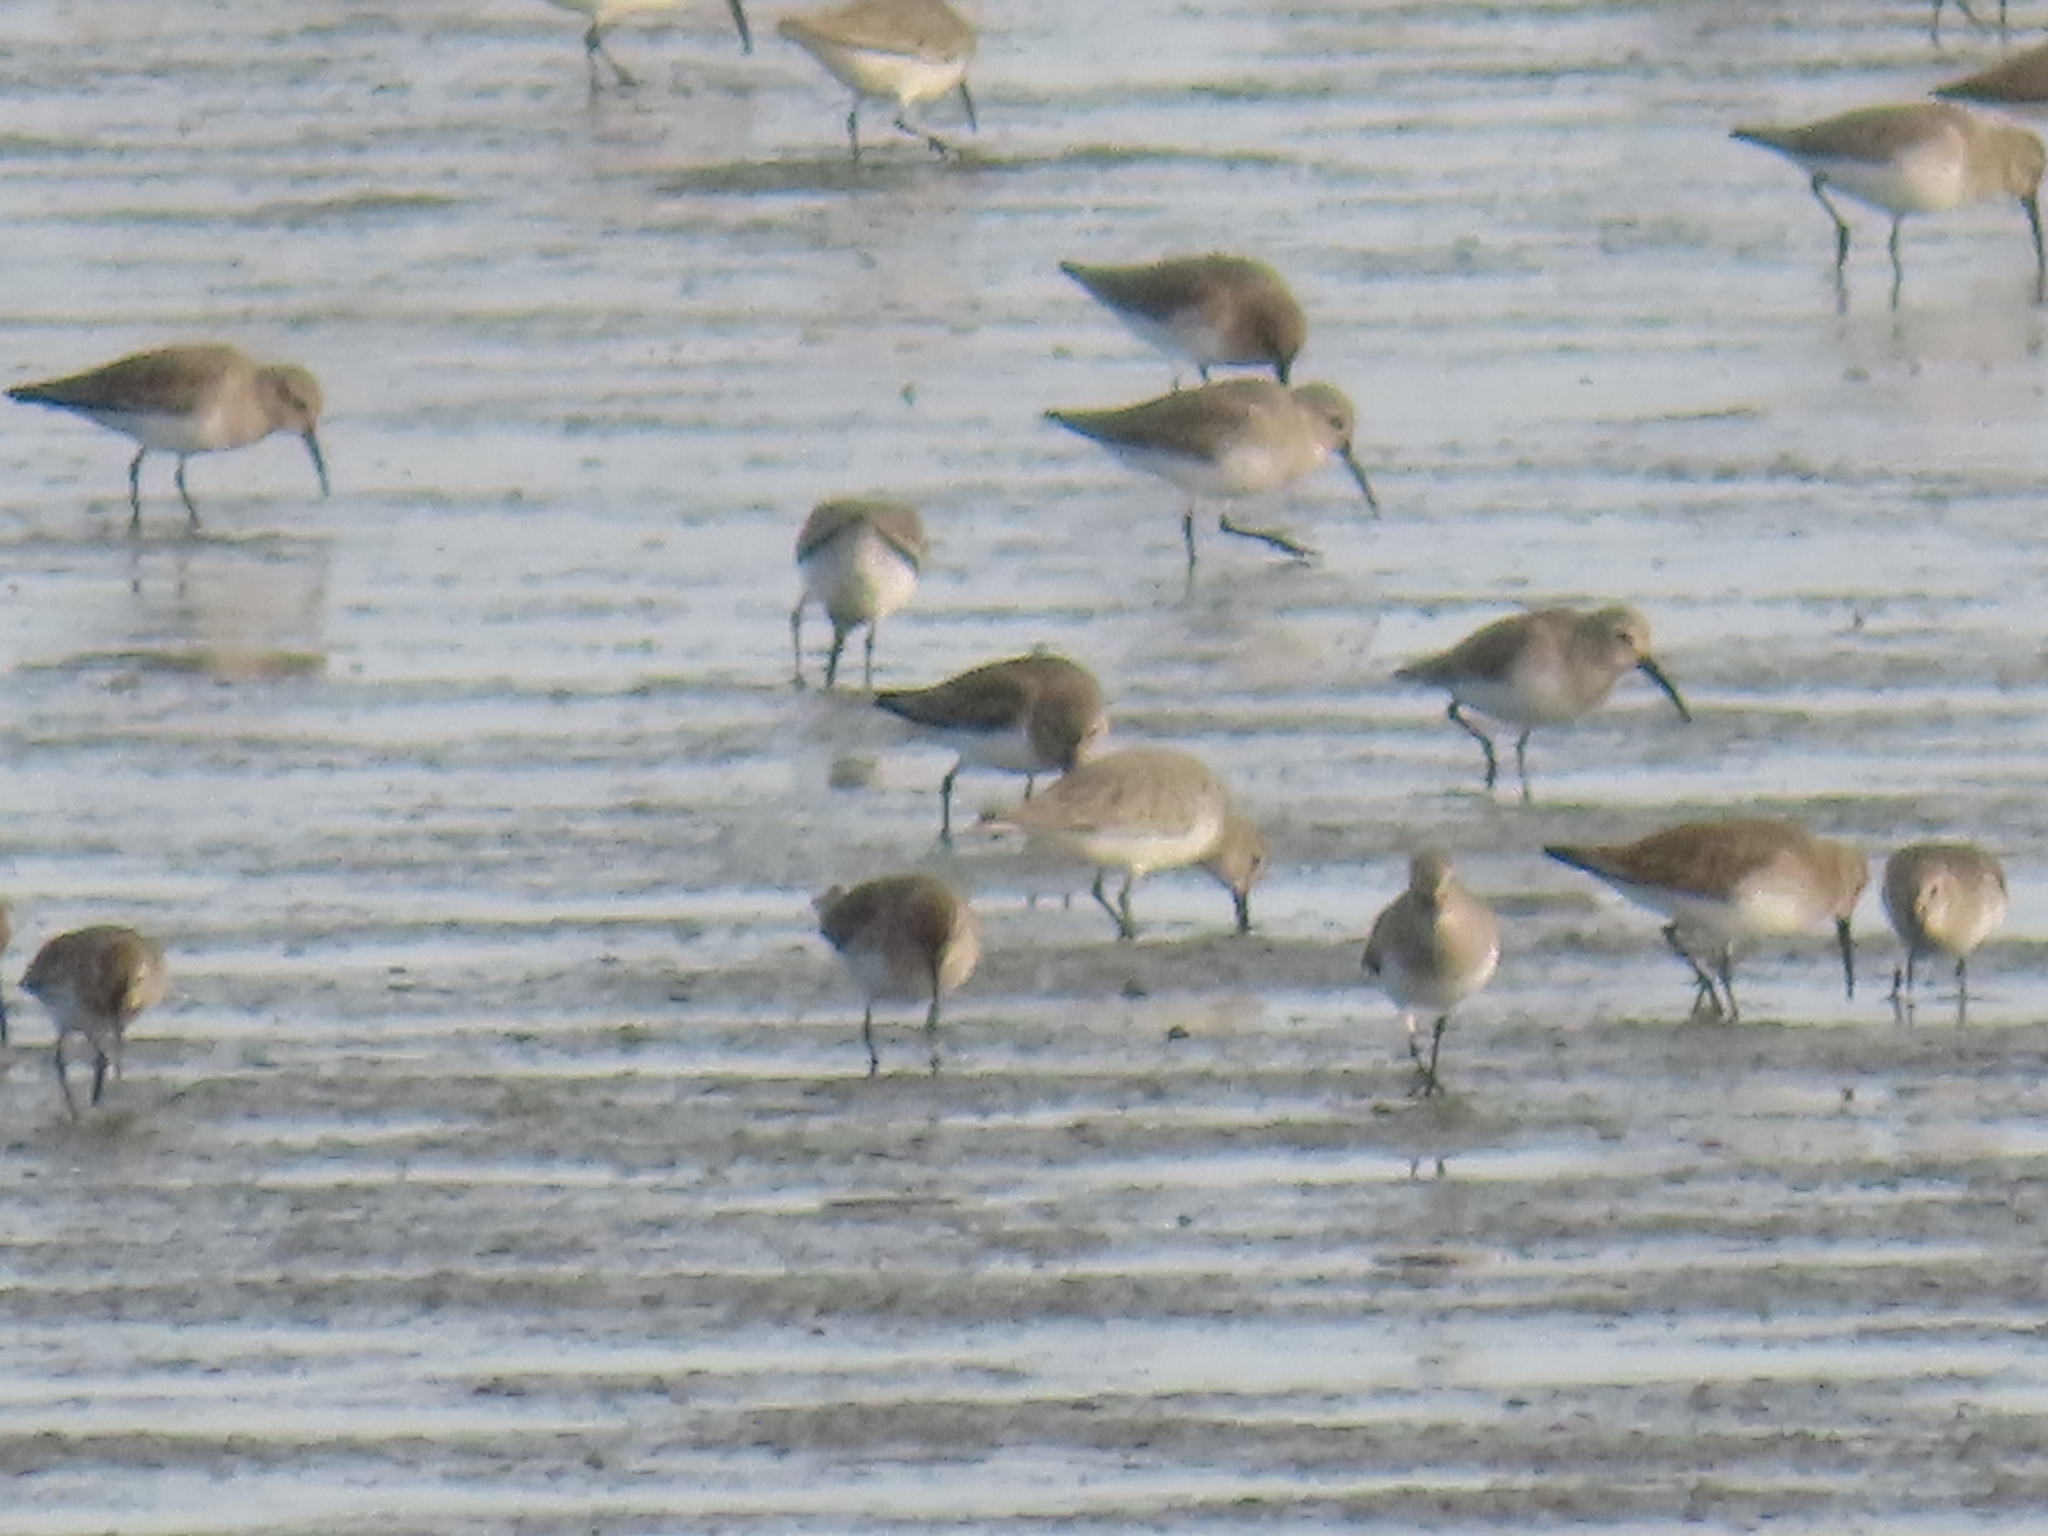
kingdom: Animalia
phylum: Chordata
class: Aves
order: Charadriiformes
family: Scolopacidae
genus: Calidris
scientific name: Calidris alpina
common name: Dunlin
